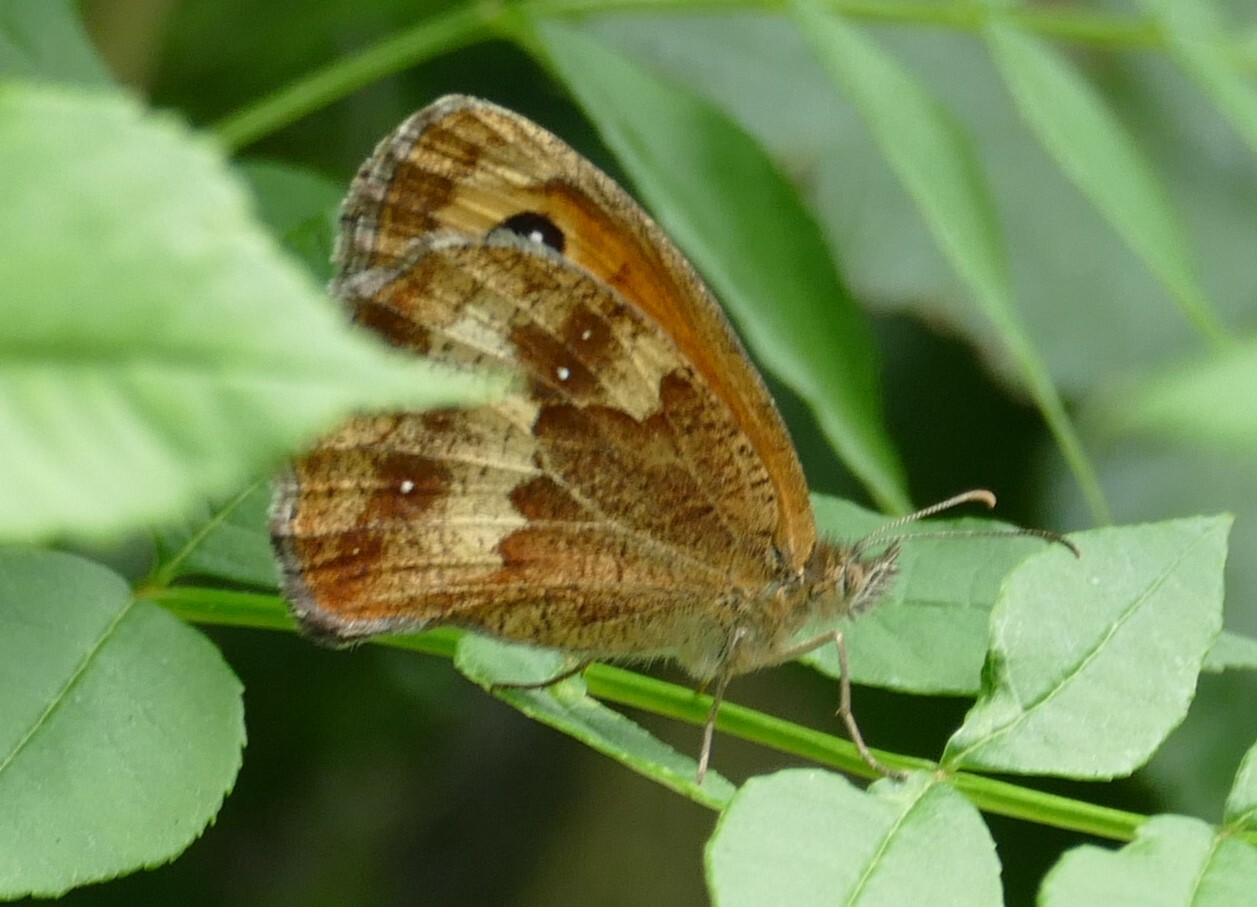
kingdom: Animalia
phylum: Arthropoda
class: Insecta
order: Lepidoptera
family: Nymphalidae
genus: Pyronia
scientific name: Pyronia tithonus
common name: Gatekeeper
